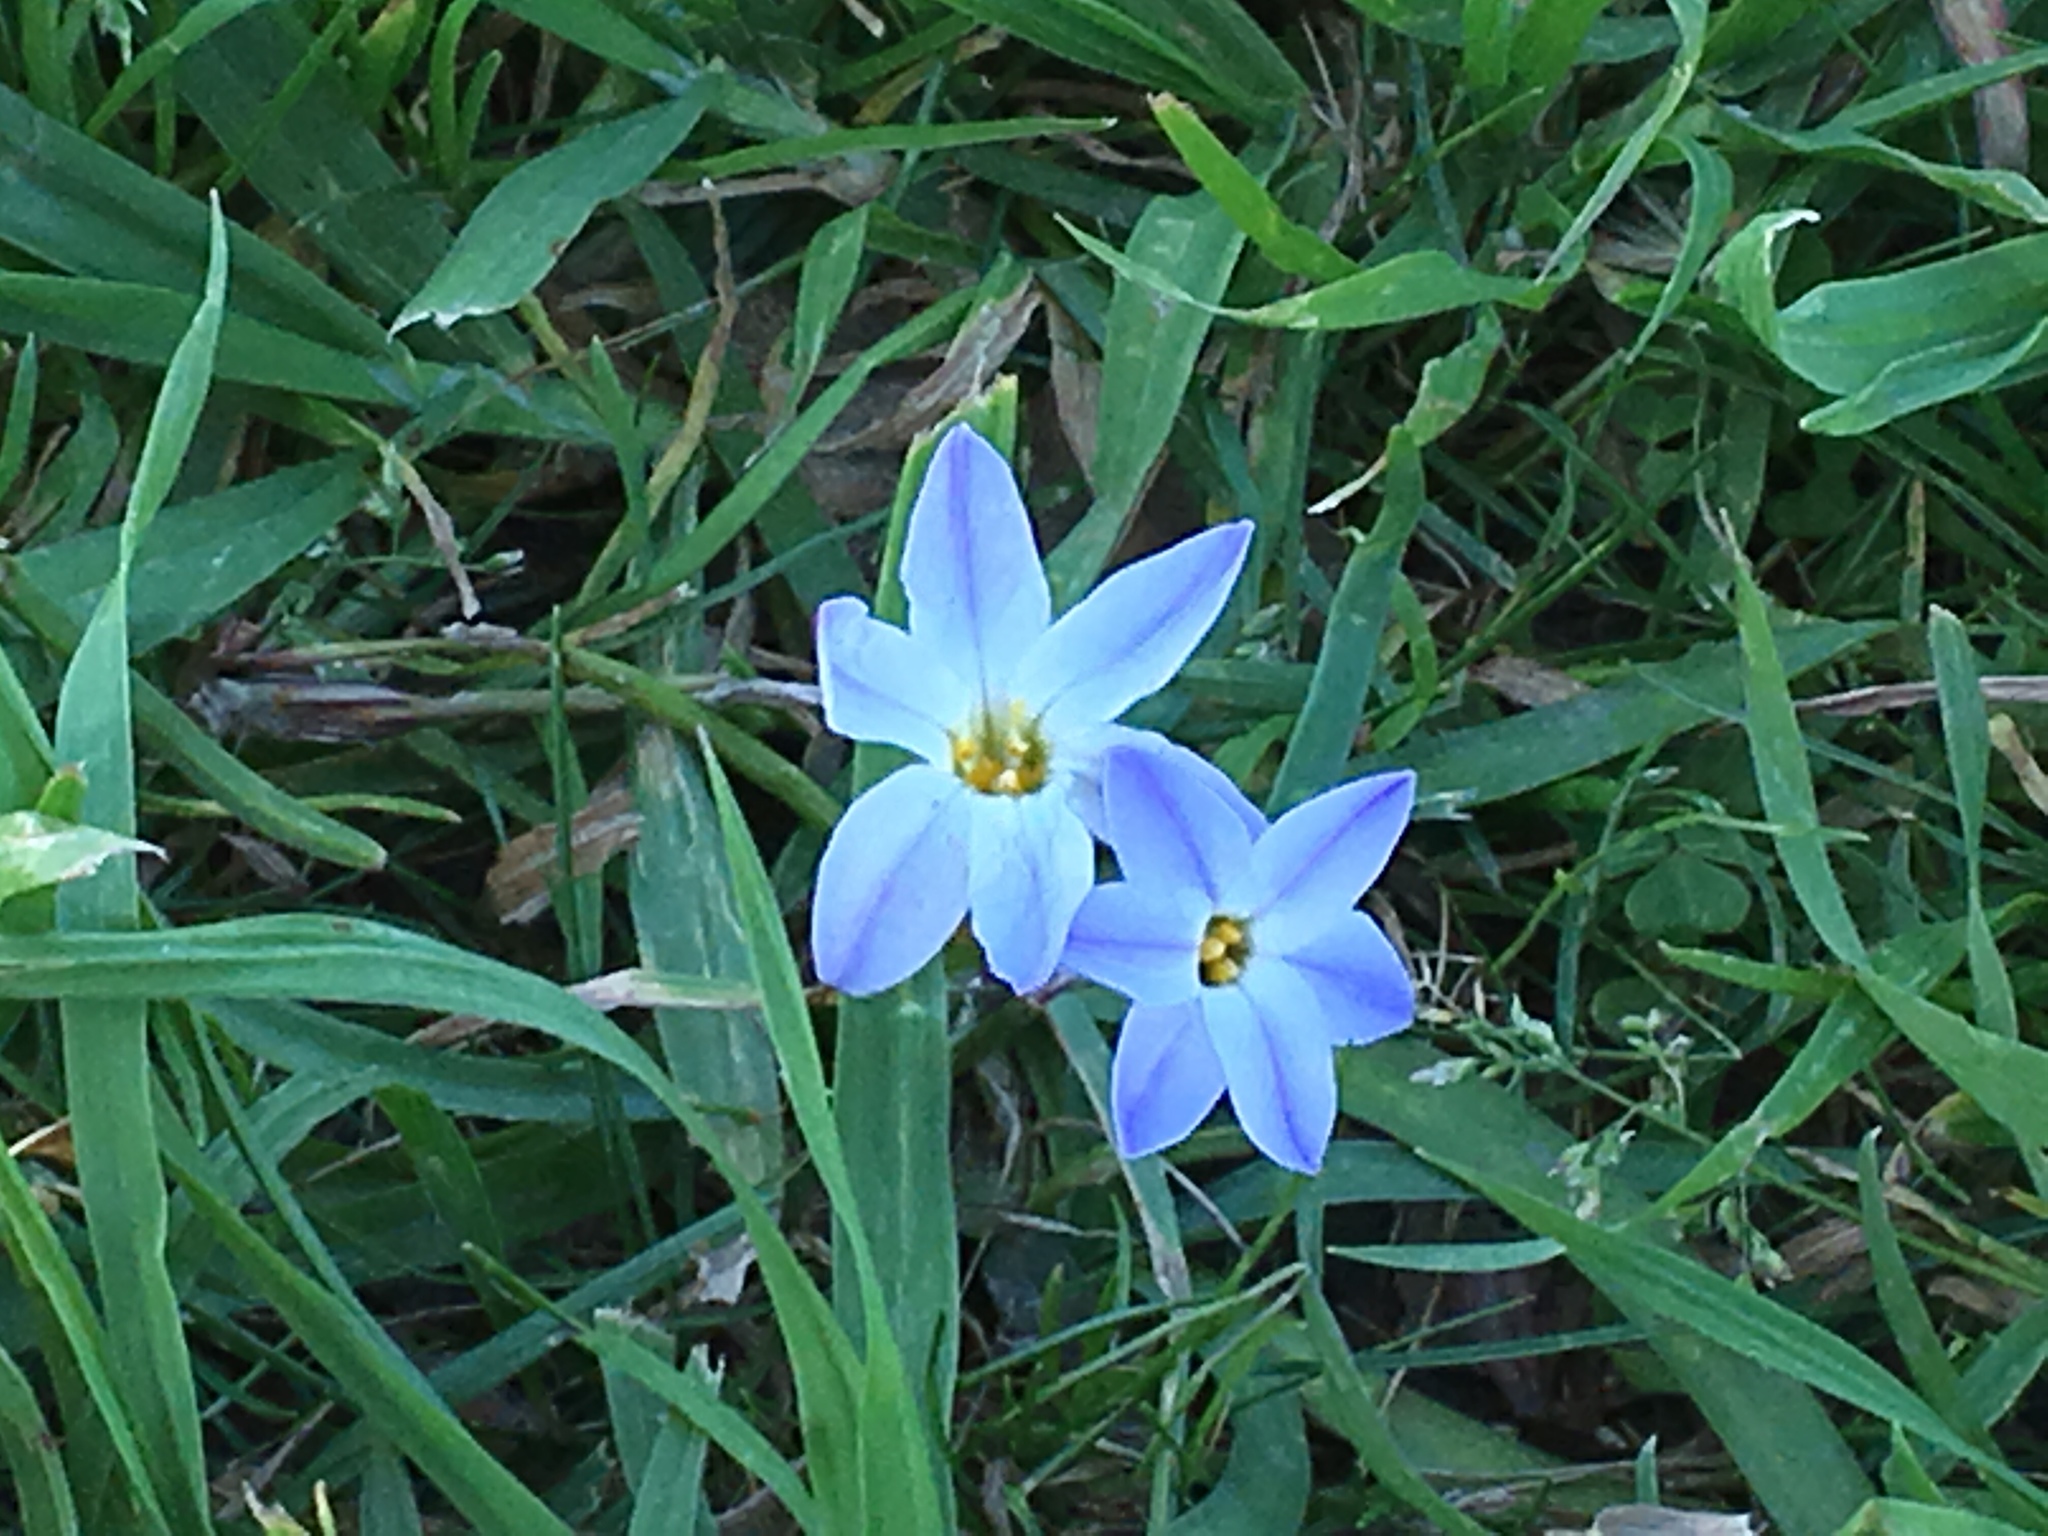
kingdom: Plantae
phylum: Tracheophyta
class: Liliopsida
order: Asparagales
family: Amaryllidaceae
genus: Ipheion
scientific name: Ipheion uniflorum
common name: Spring starflower
